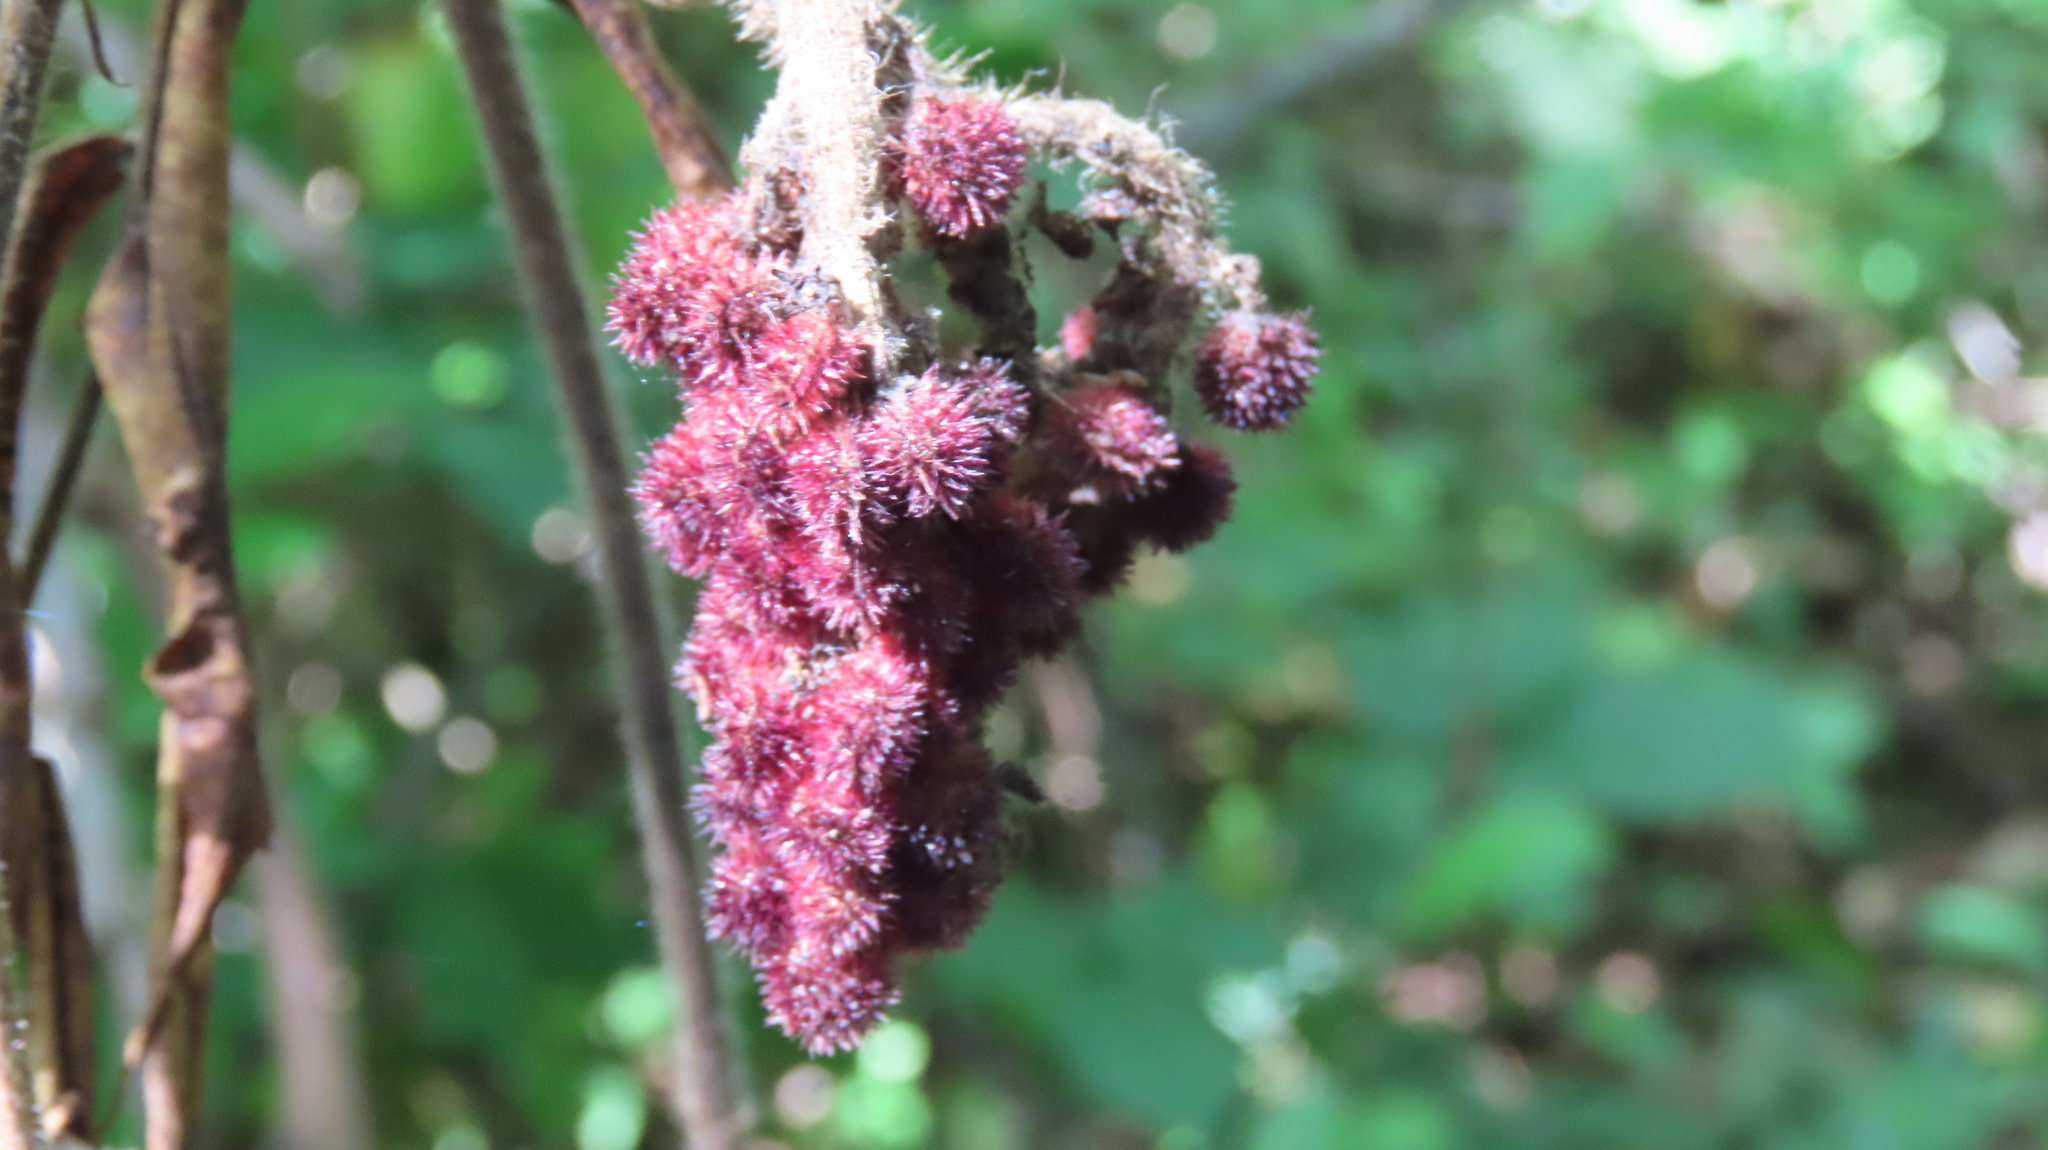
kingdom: Plantae
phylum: Tracheophyta
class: Magnoliopsida
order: Sapindales
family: Anacardiaceae
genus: Rhus
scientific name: Rhus typhina
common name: Staghorn sumac
